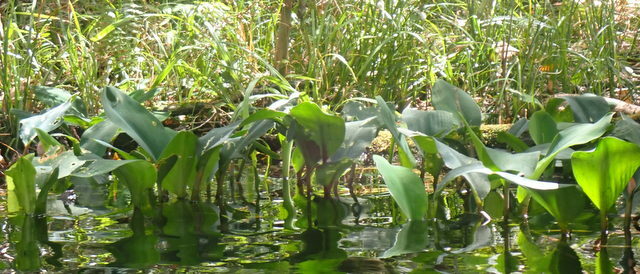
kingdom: Plantae
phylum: Tracheophyta
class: Liliopsida
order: Alismatales
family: Araceae
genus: Orontium
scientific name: Orontium aquaticum
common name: Golden-club
